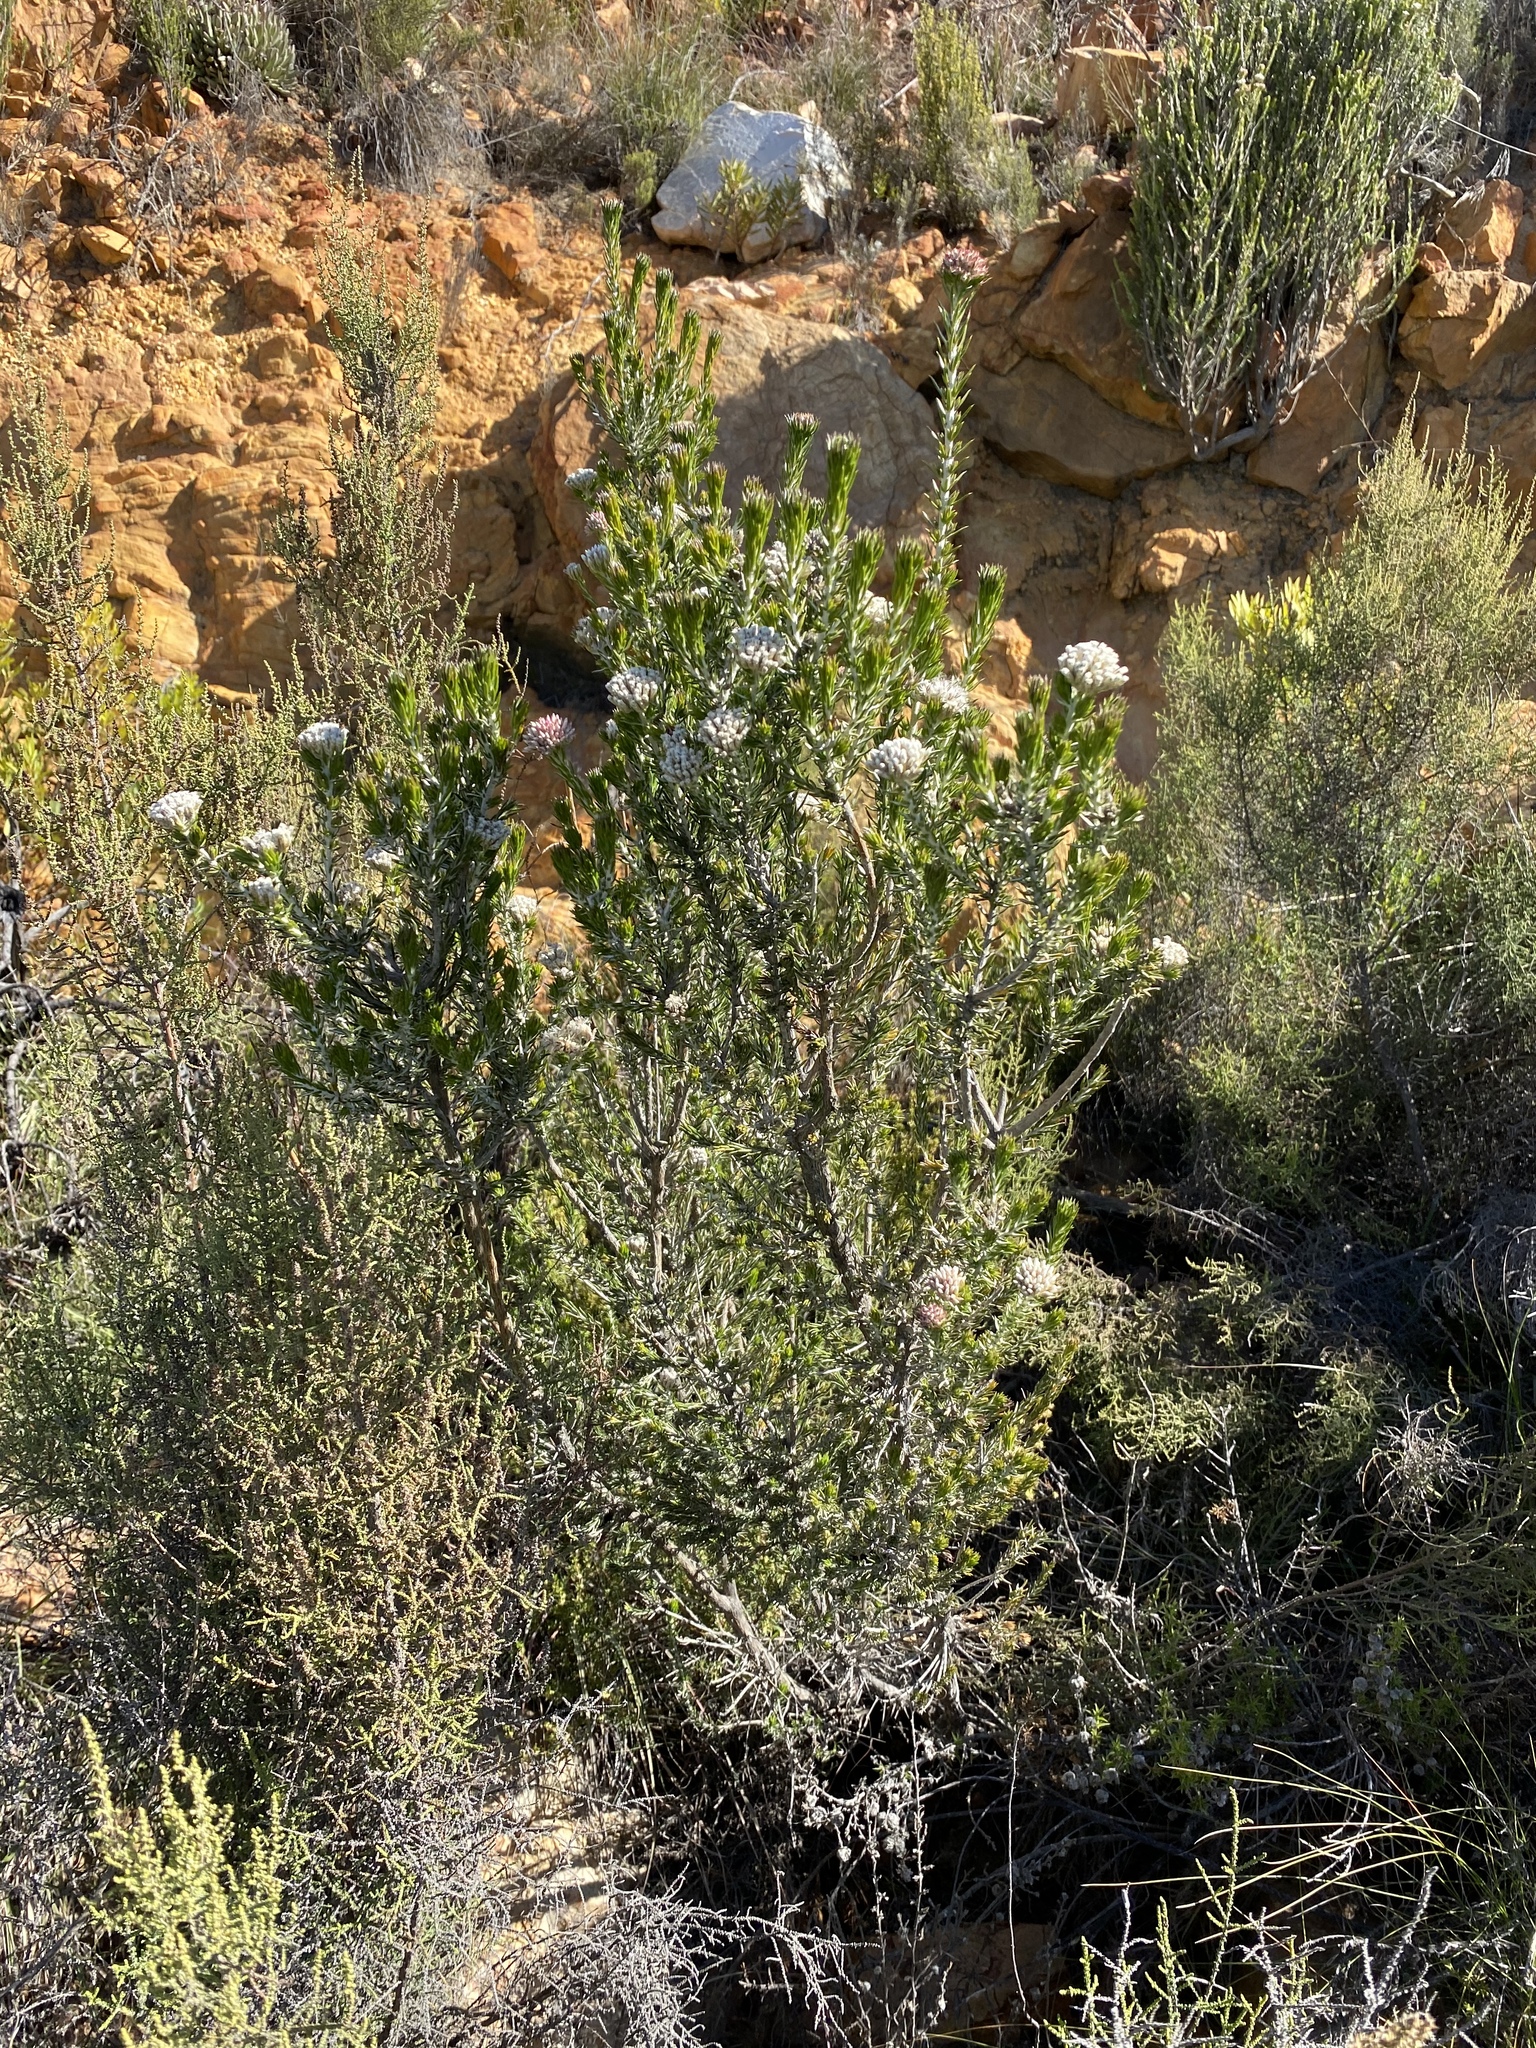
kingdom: Plantae
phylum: Tracheophyta
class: Magnoliopsida
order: Asterales
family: Asteraceae
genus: Metalasia
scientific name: Metalasia pulcherrima
